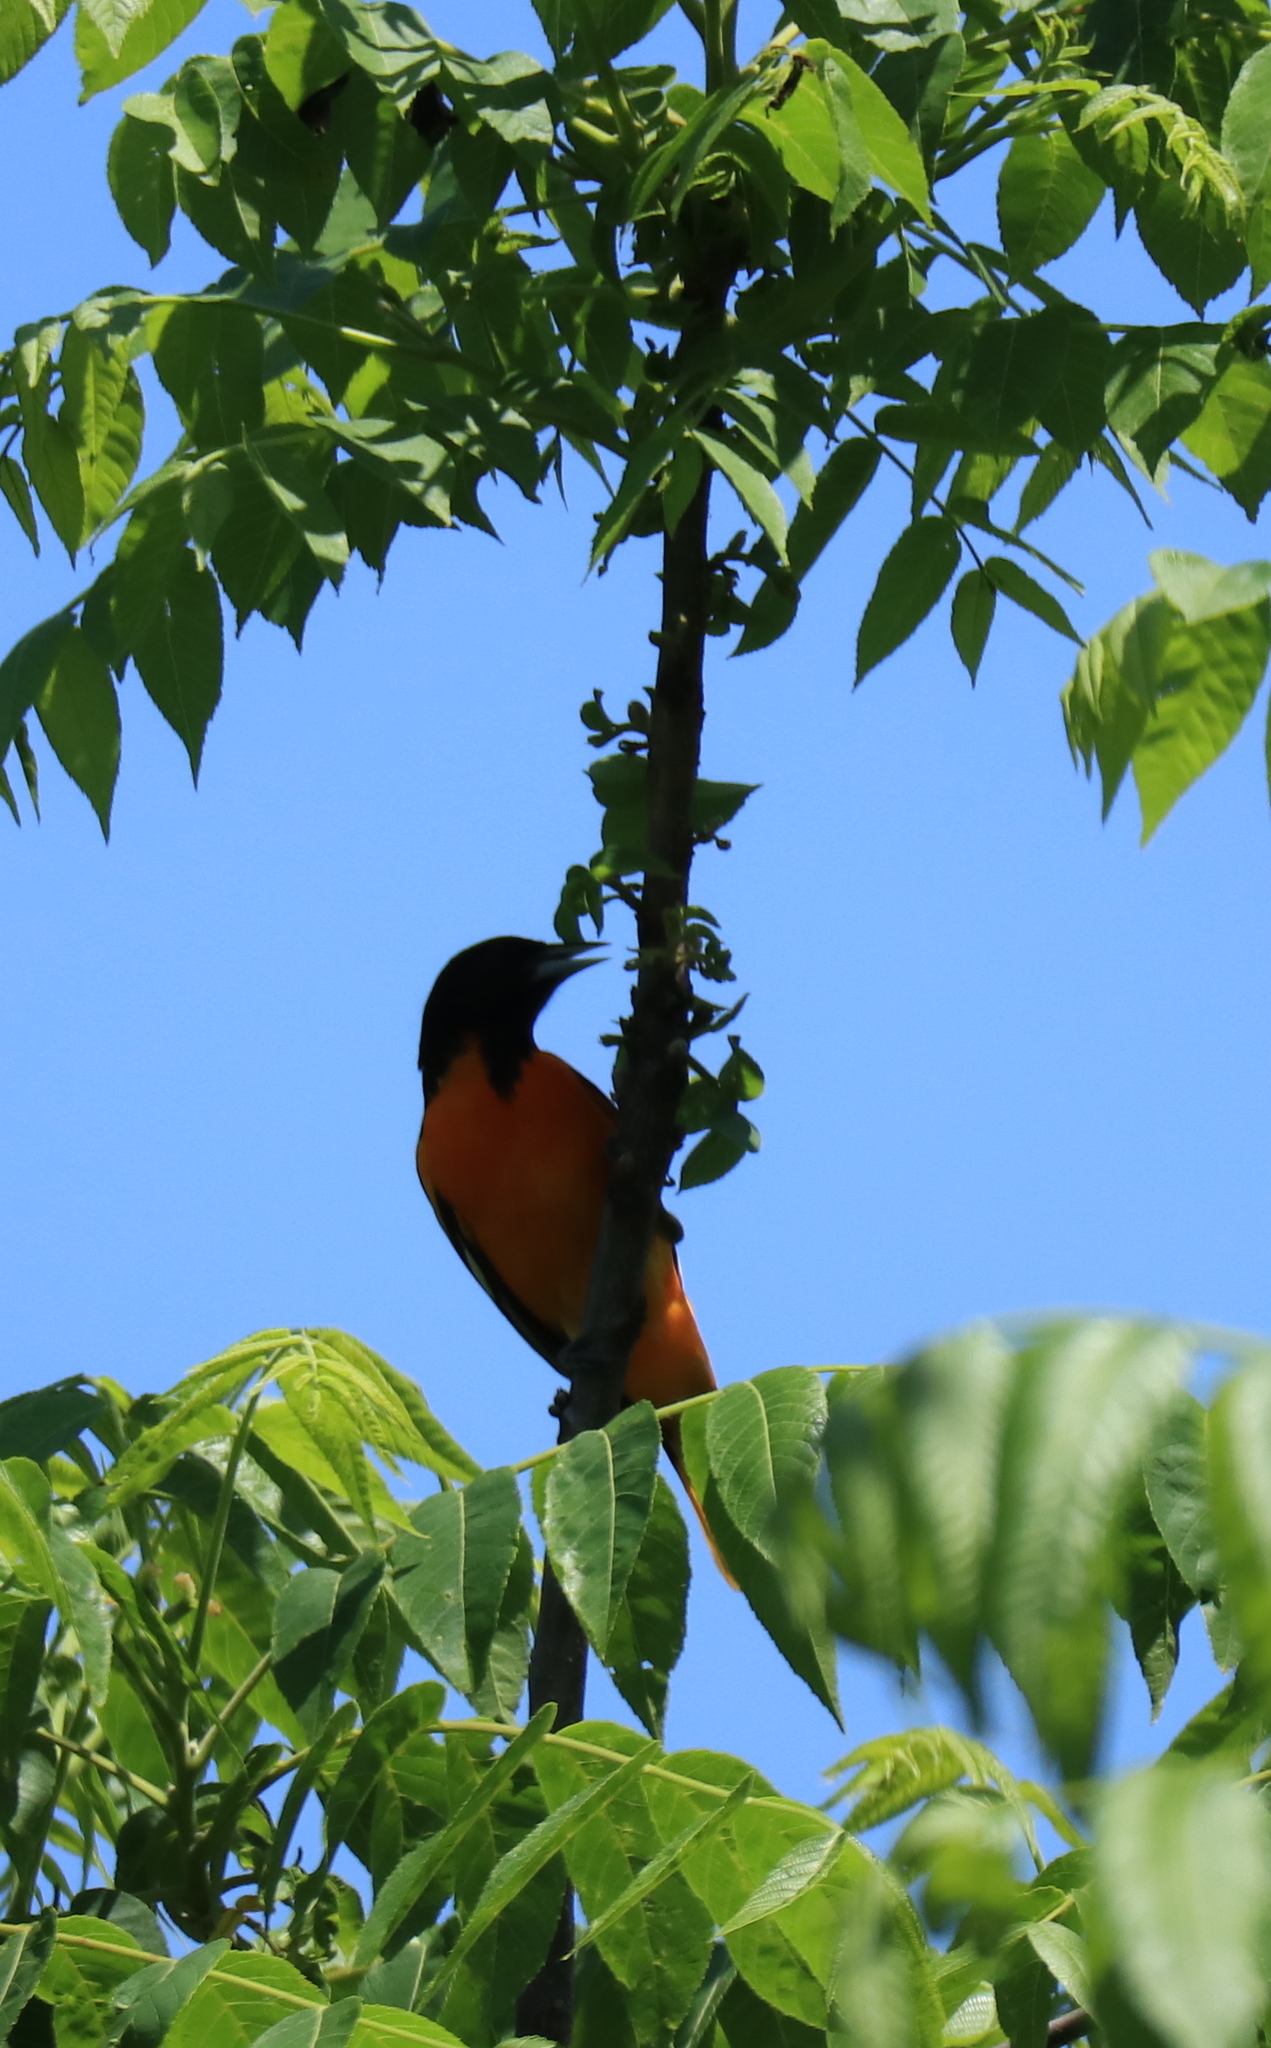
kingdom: Animalia
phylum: Chordata
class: Aves
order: Passeriformes
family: Icteridae
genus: Icterus
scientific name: Icterus galbula
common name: Baltimore oriole
